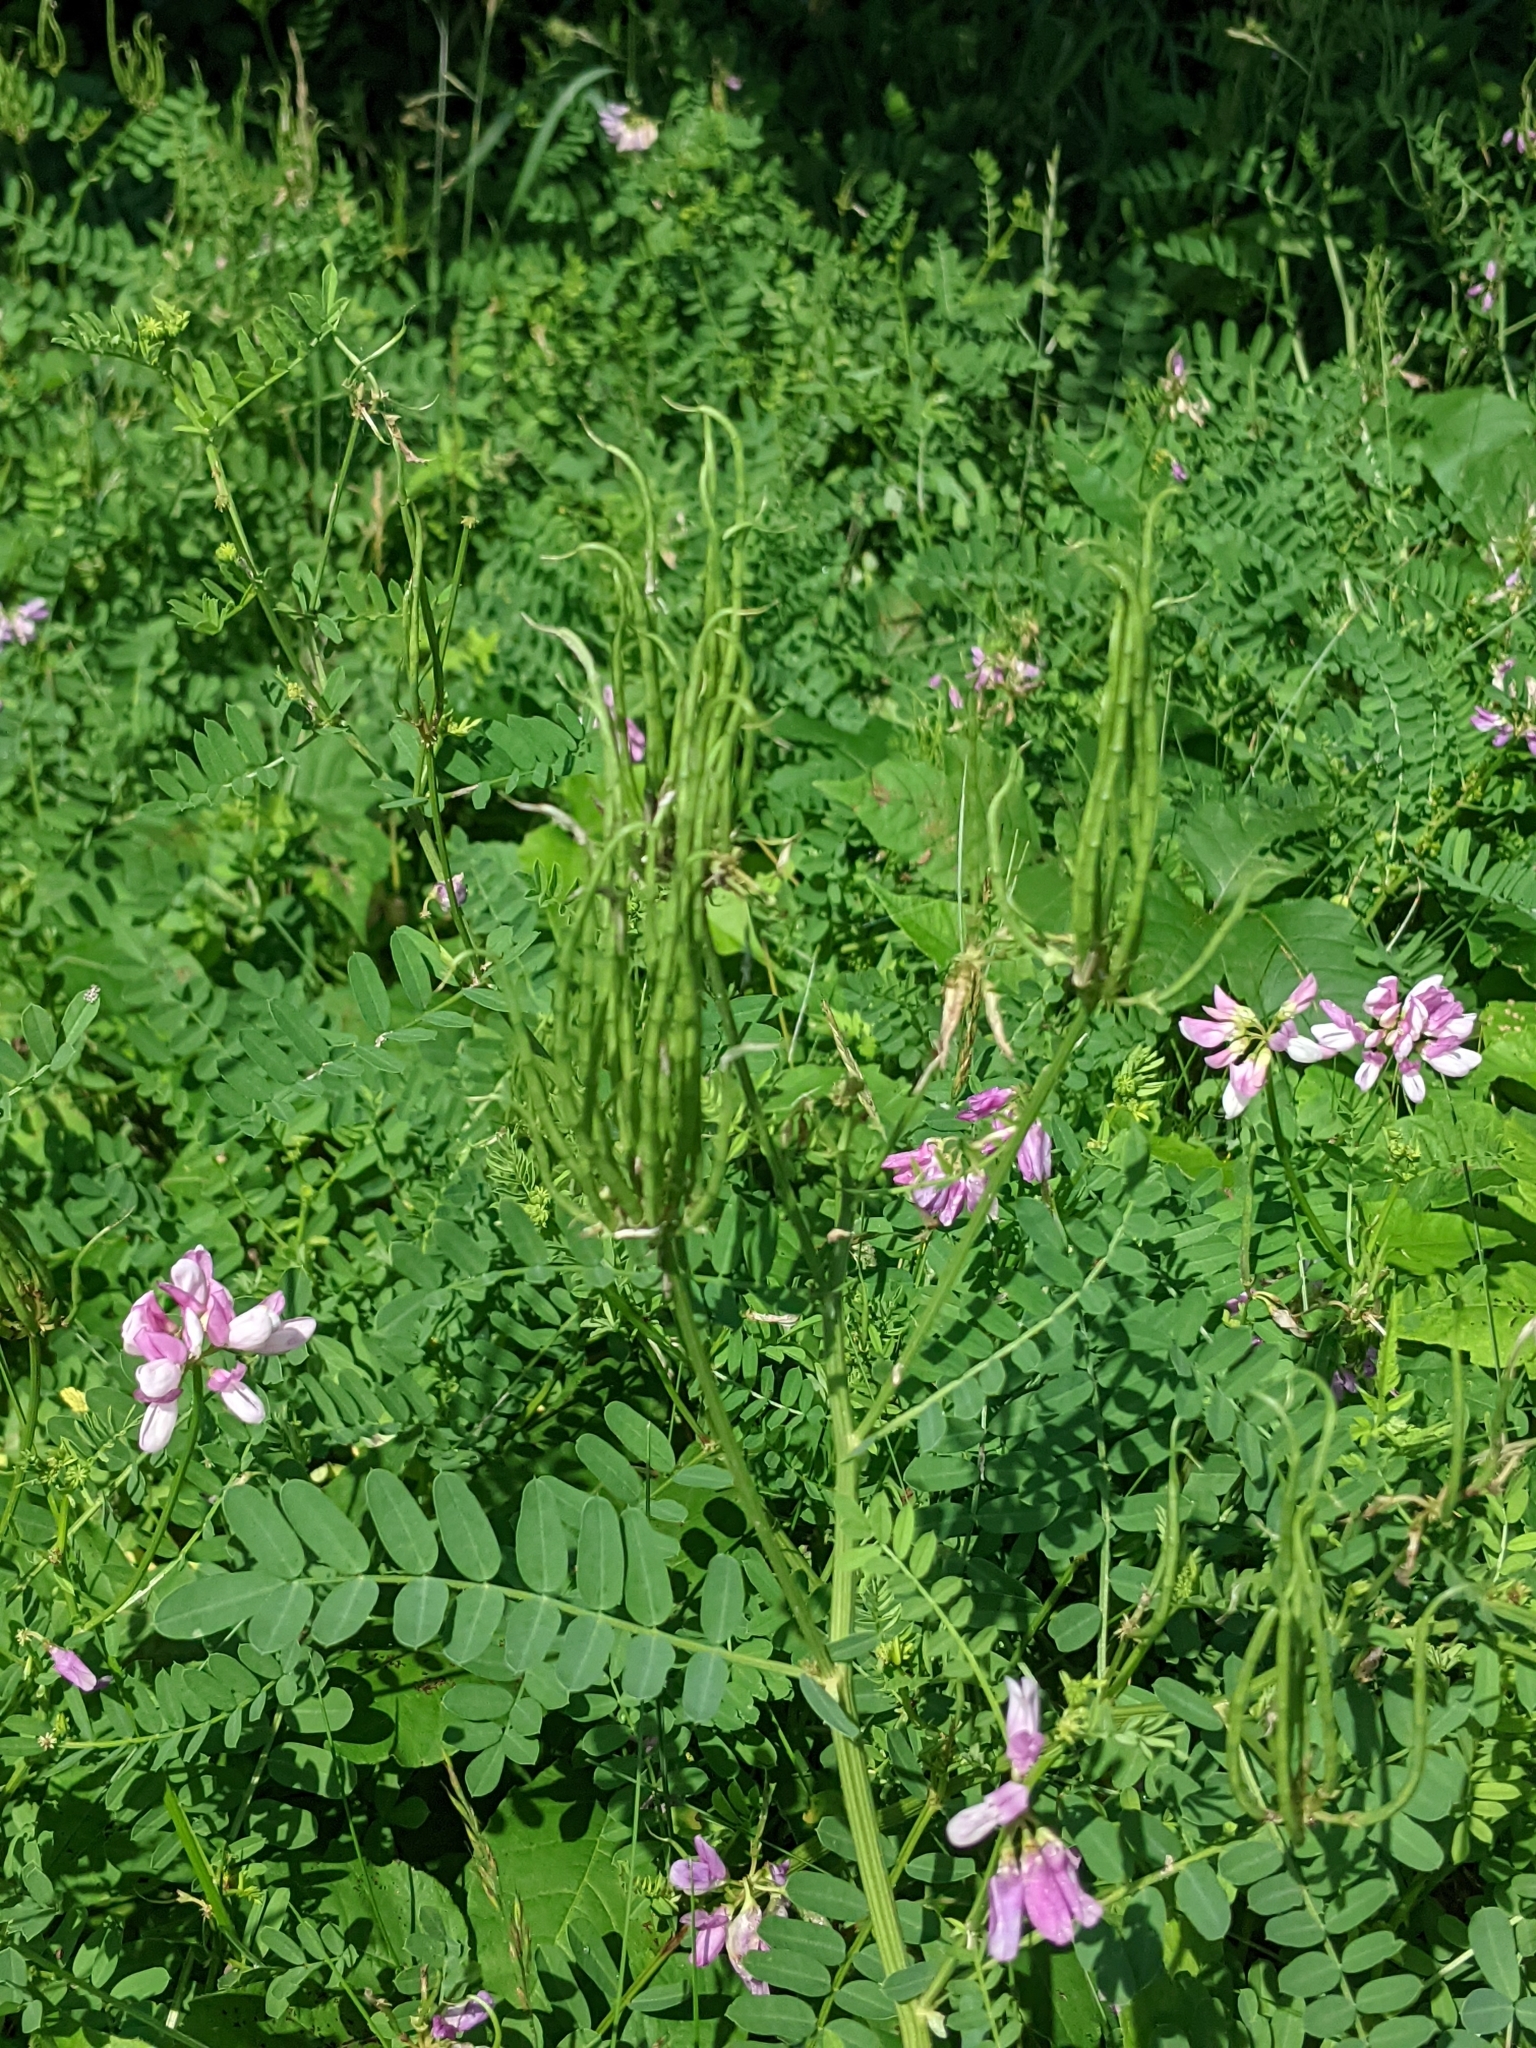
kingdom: Plantae
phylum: Tracheophyta
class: Magnoliopsida
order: Fabales
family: Fabaceae
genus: Coronilla
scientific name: Coronilla varia
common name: Crownvetch
